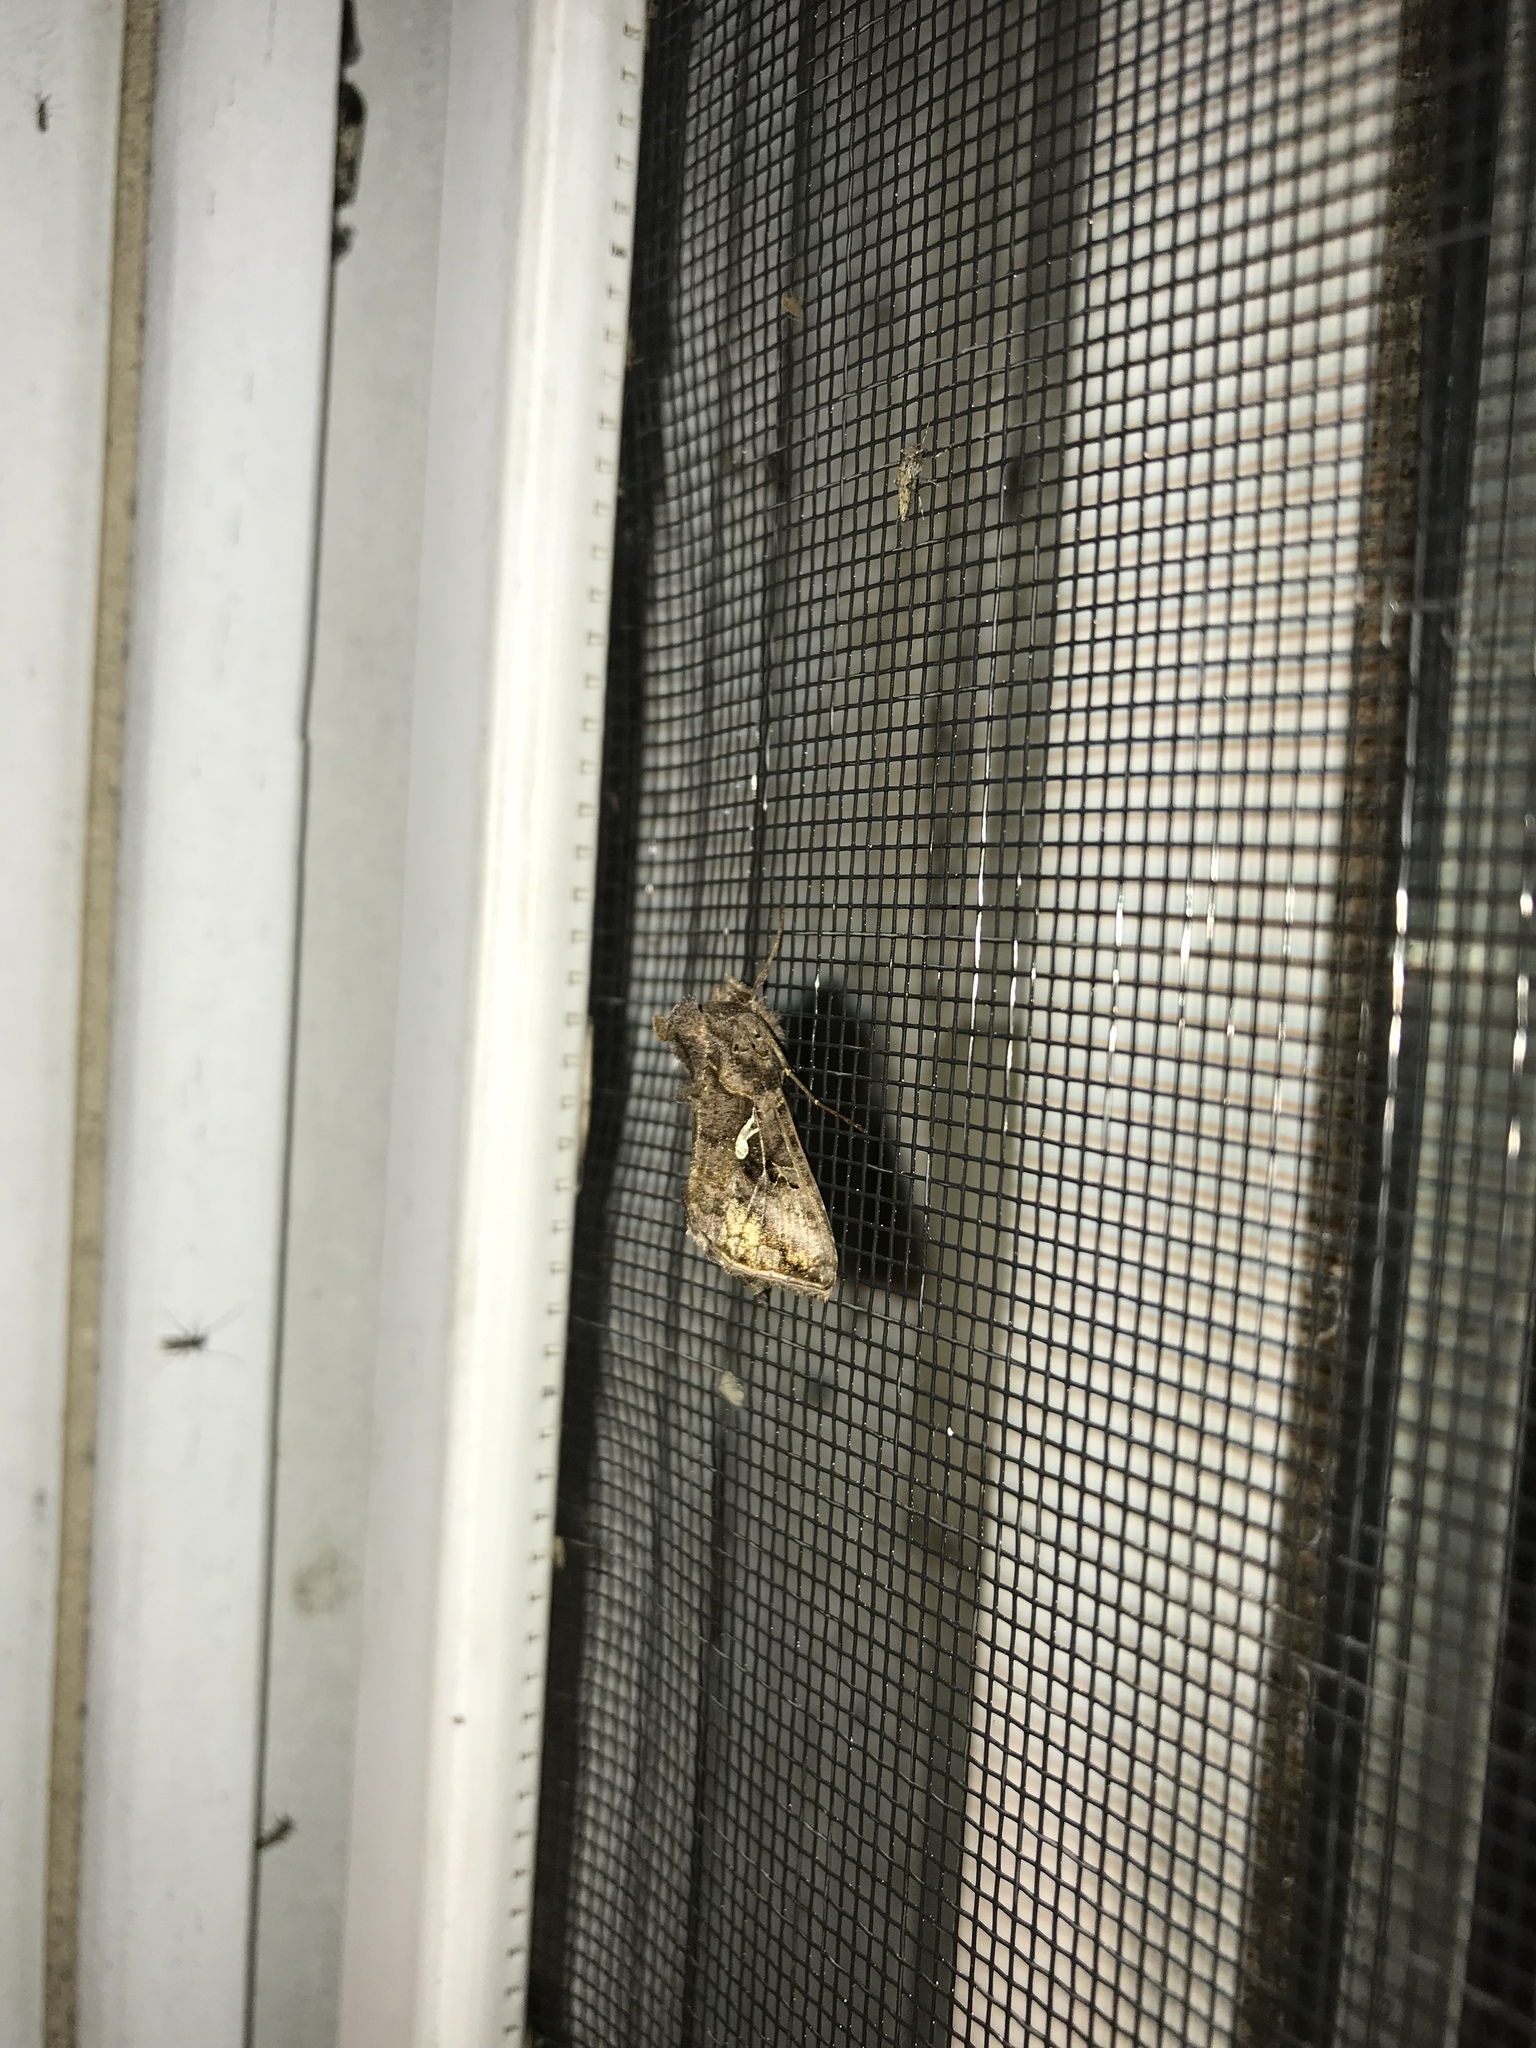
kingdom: Animalia
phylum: Arthropoda
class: Insecta
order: Lepidoptera
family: Noctuidae
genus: Autographa
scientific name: Autographa precationis
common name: Common looper moth
